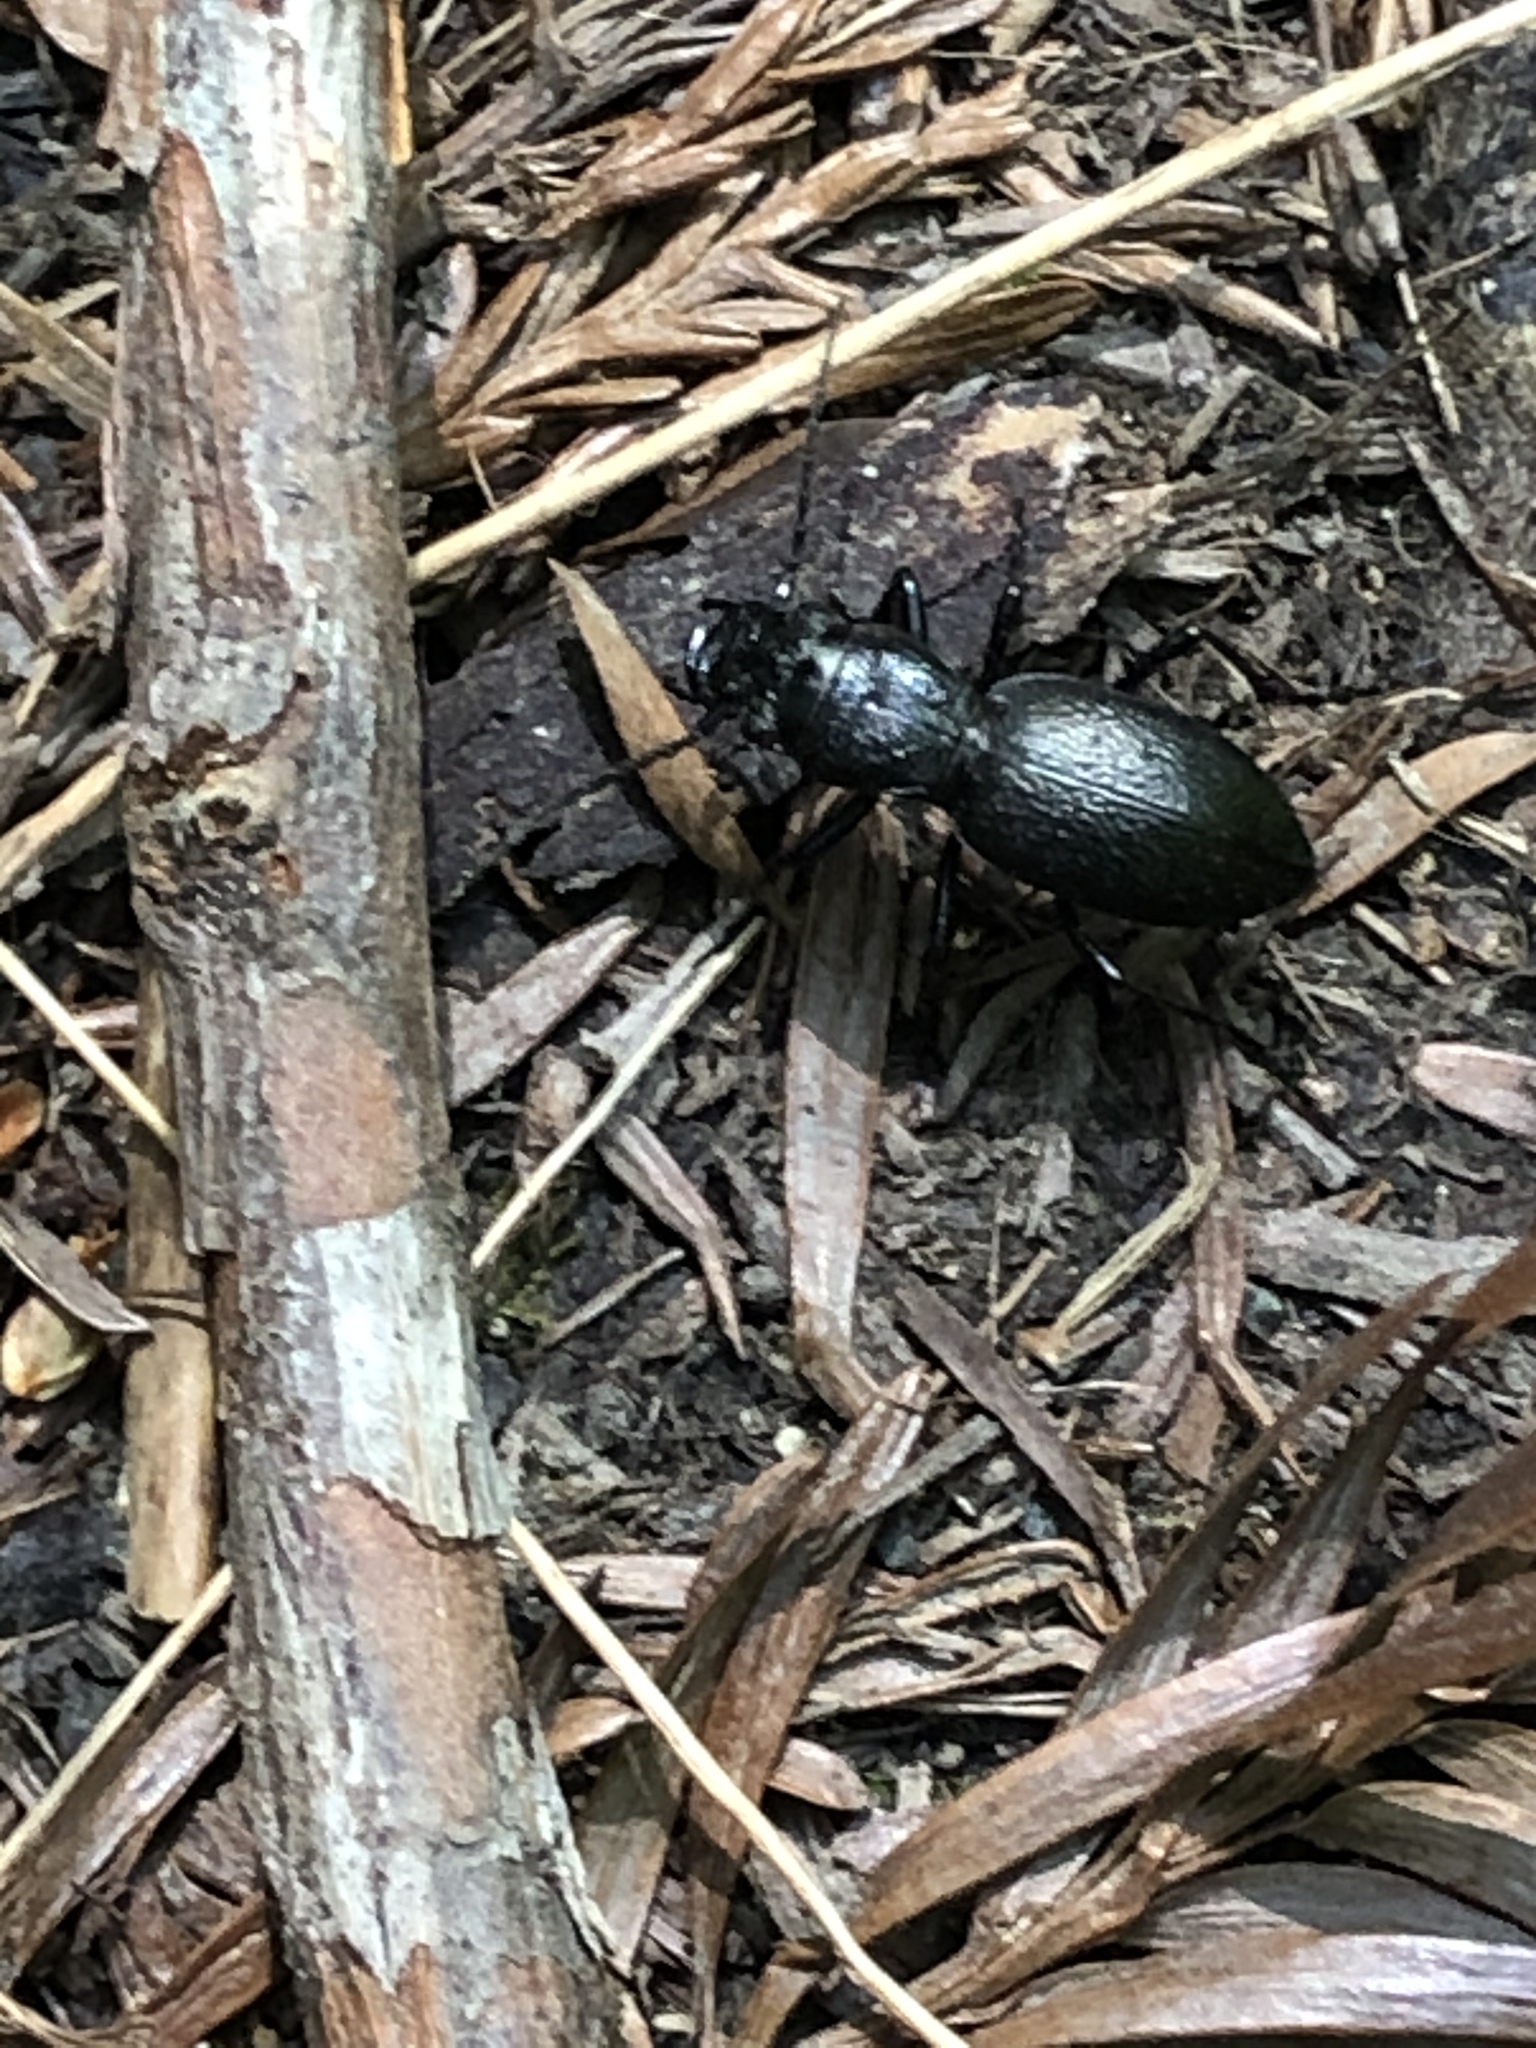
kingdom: Animalia
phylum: Arthropoda
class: Insecta
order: Coleoptera
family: Carabidae
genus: Omus
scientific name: Omus californicus
